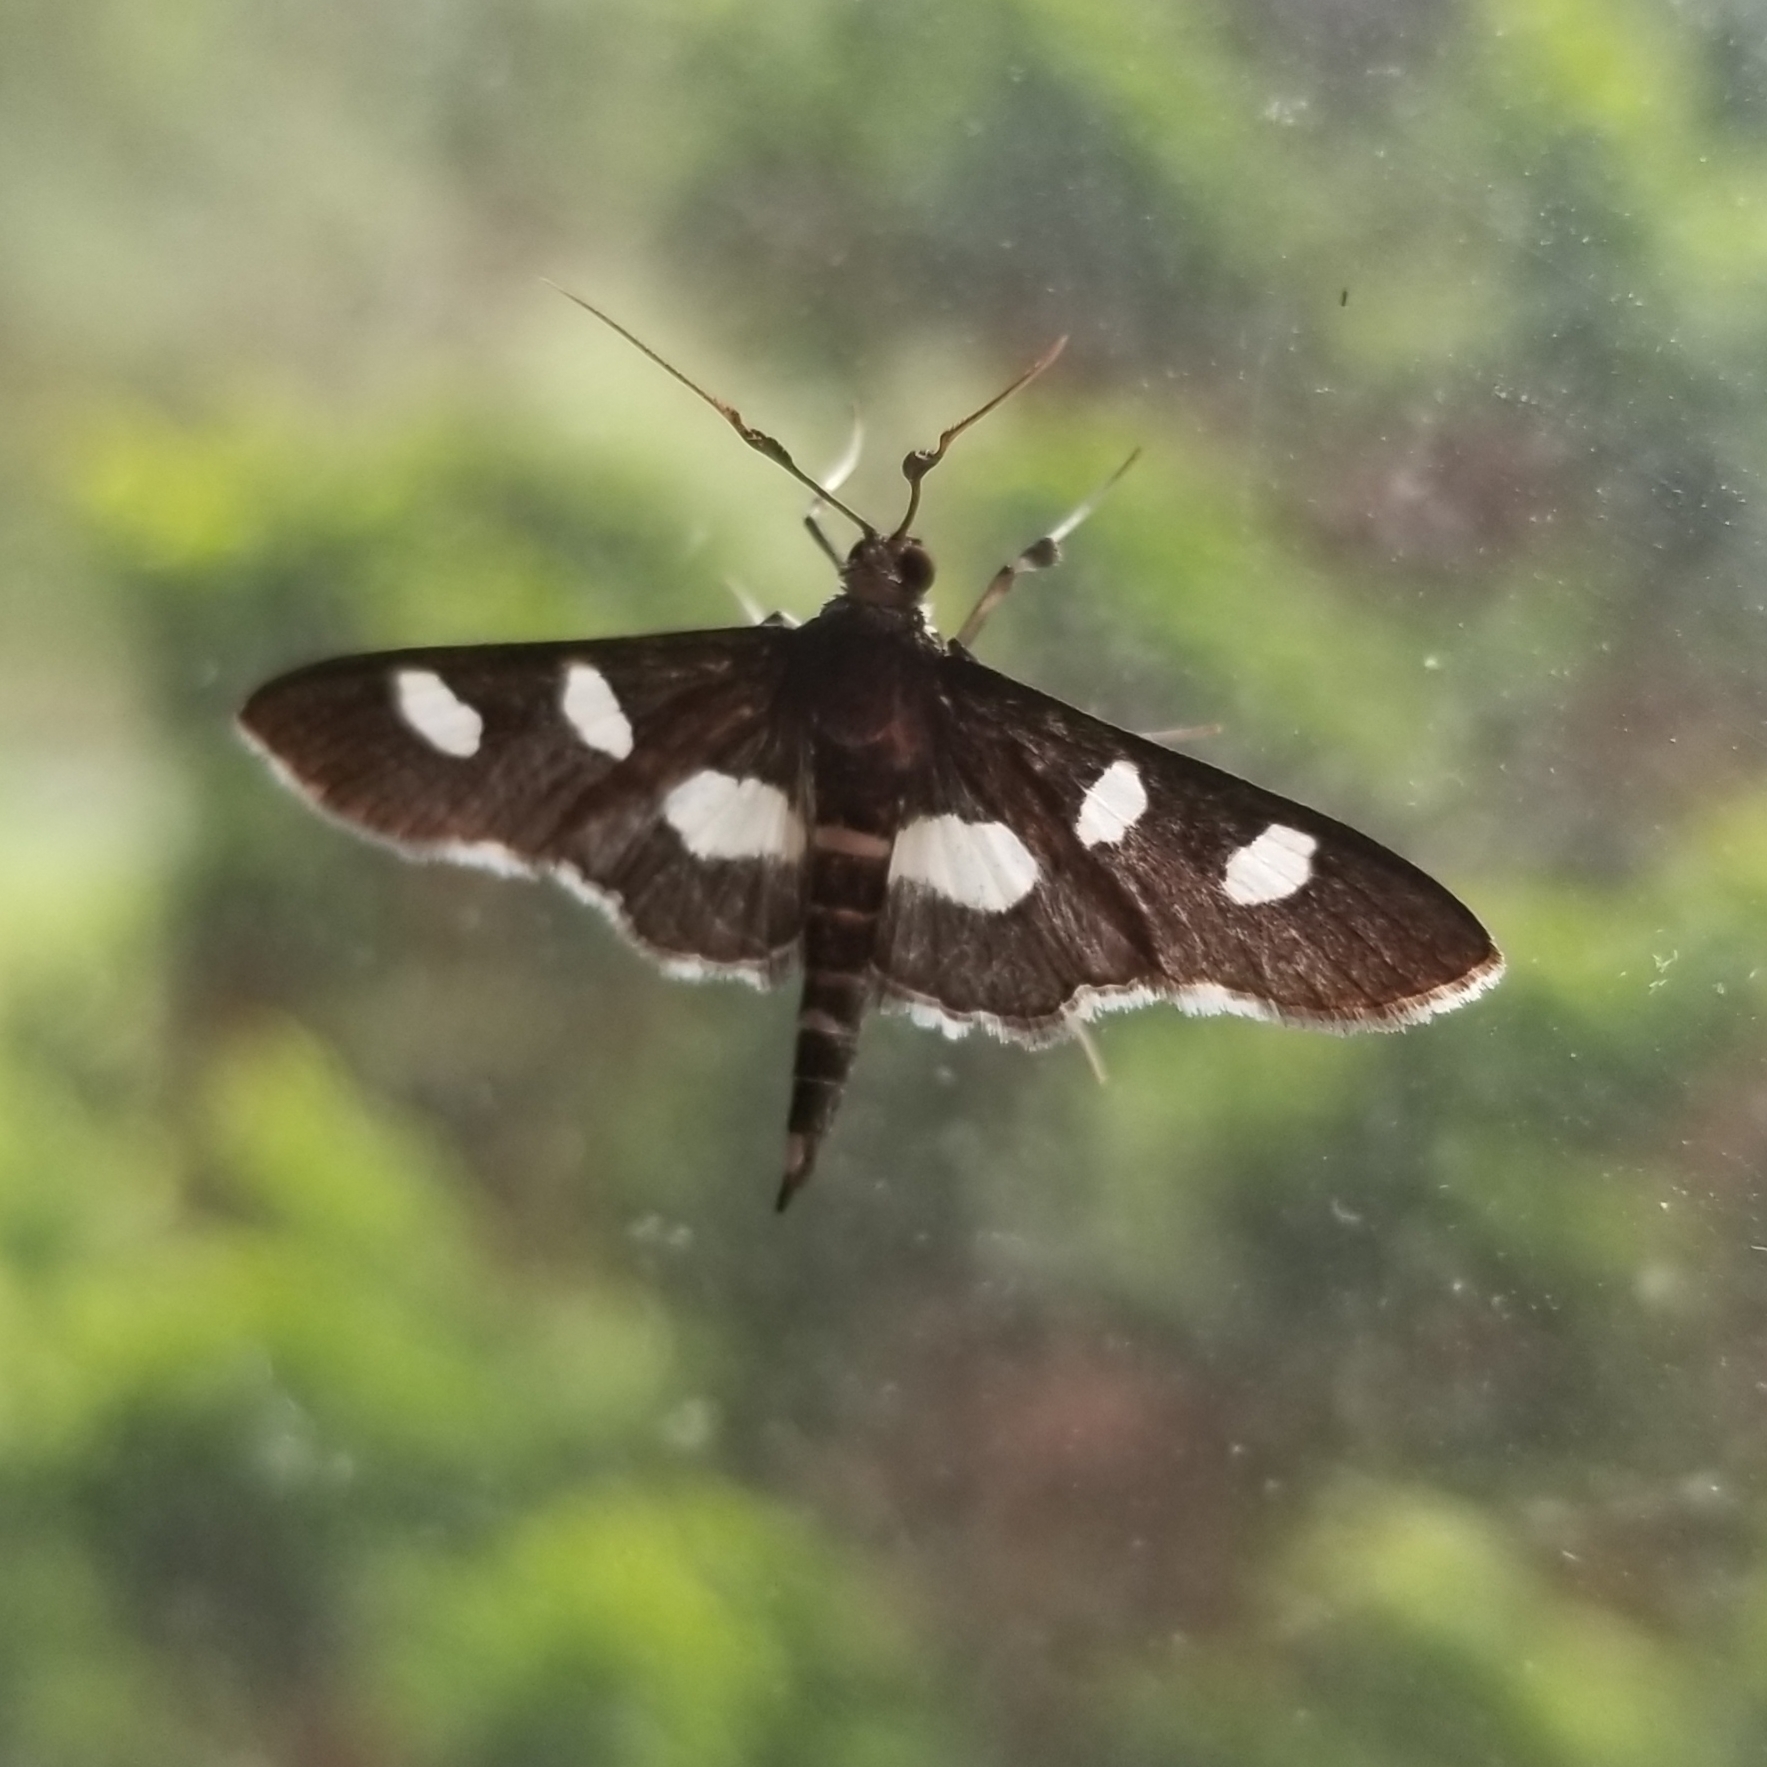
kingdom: Animalia
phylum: Arthropoda
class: Insecta
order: Lepidoptera
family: Crambidae
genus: Desmia
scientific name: Desmia
